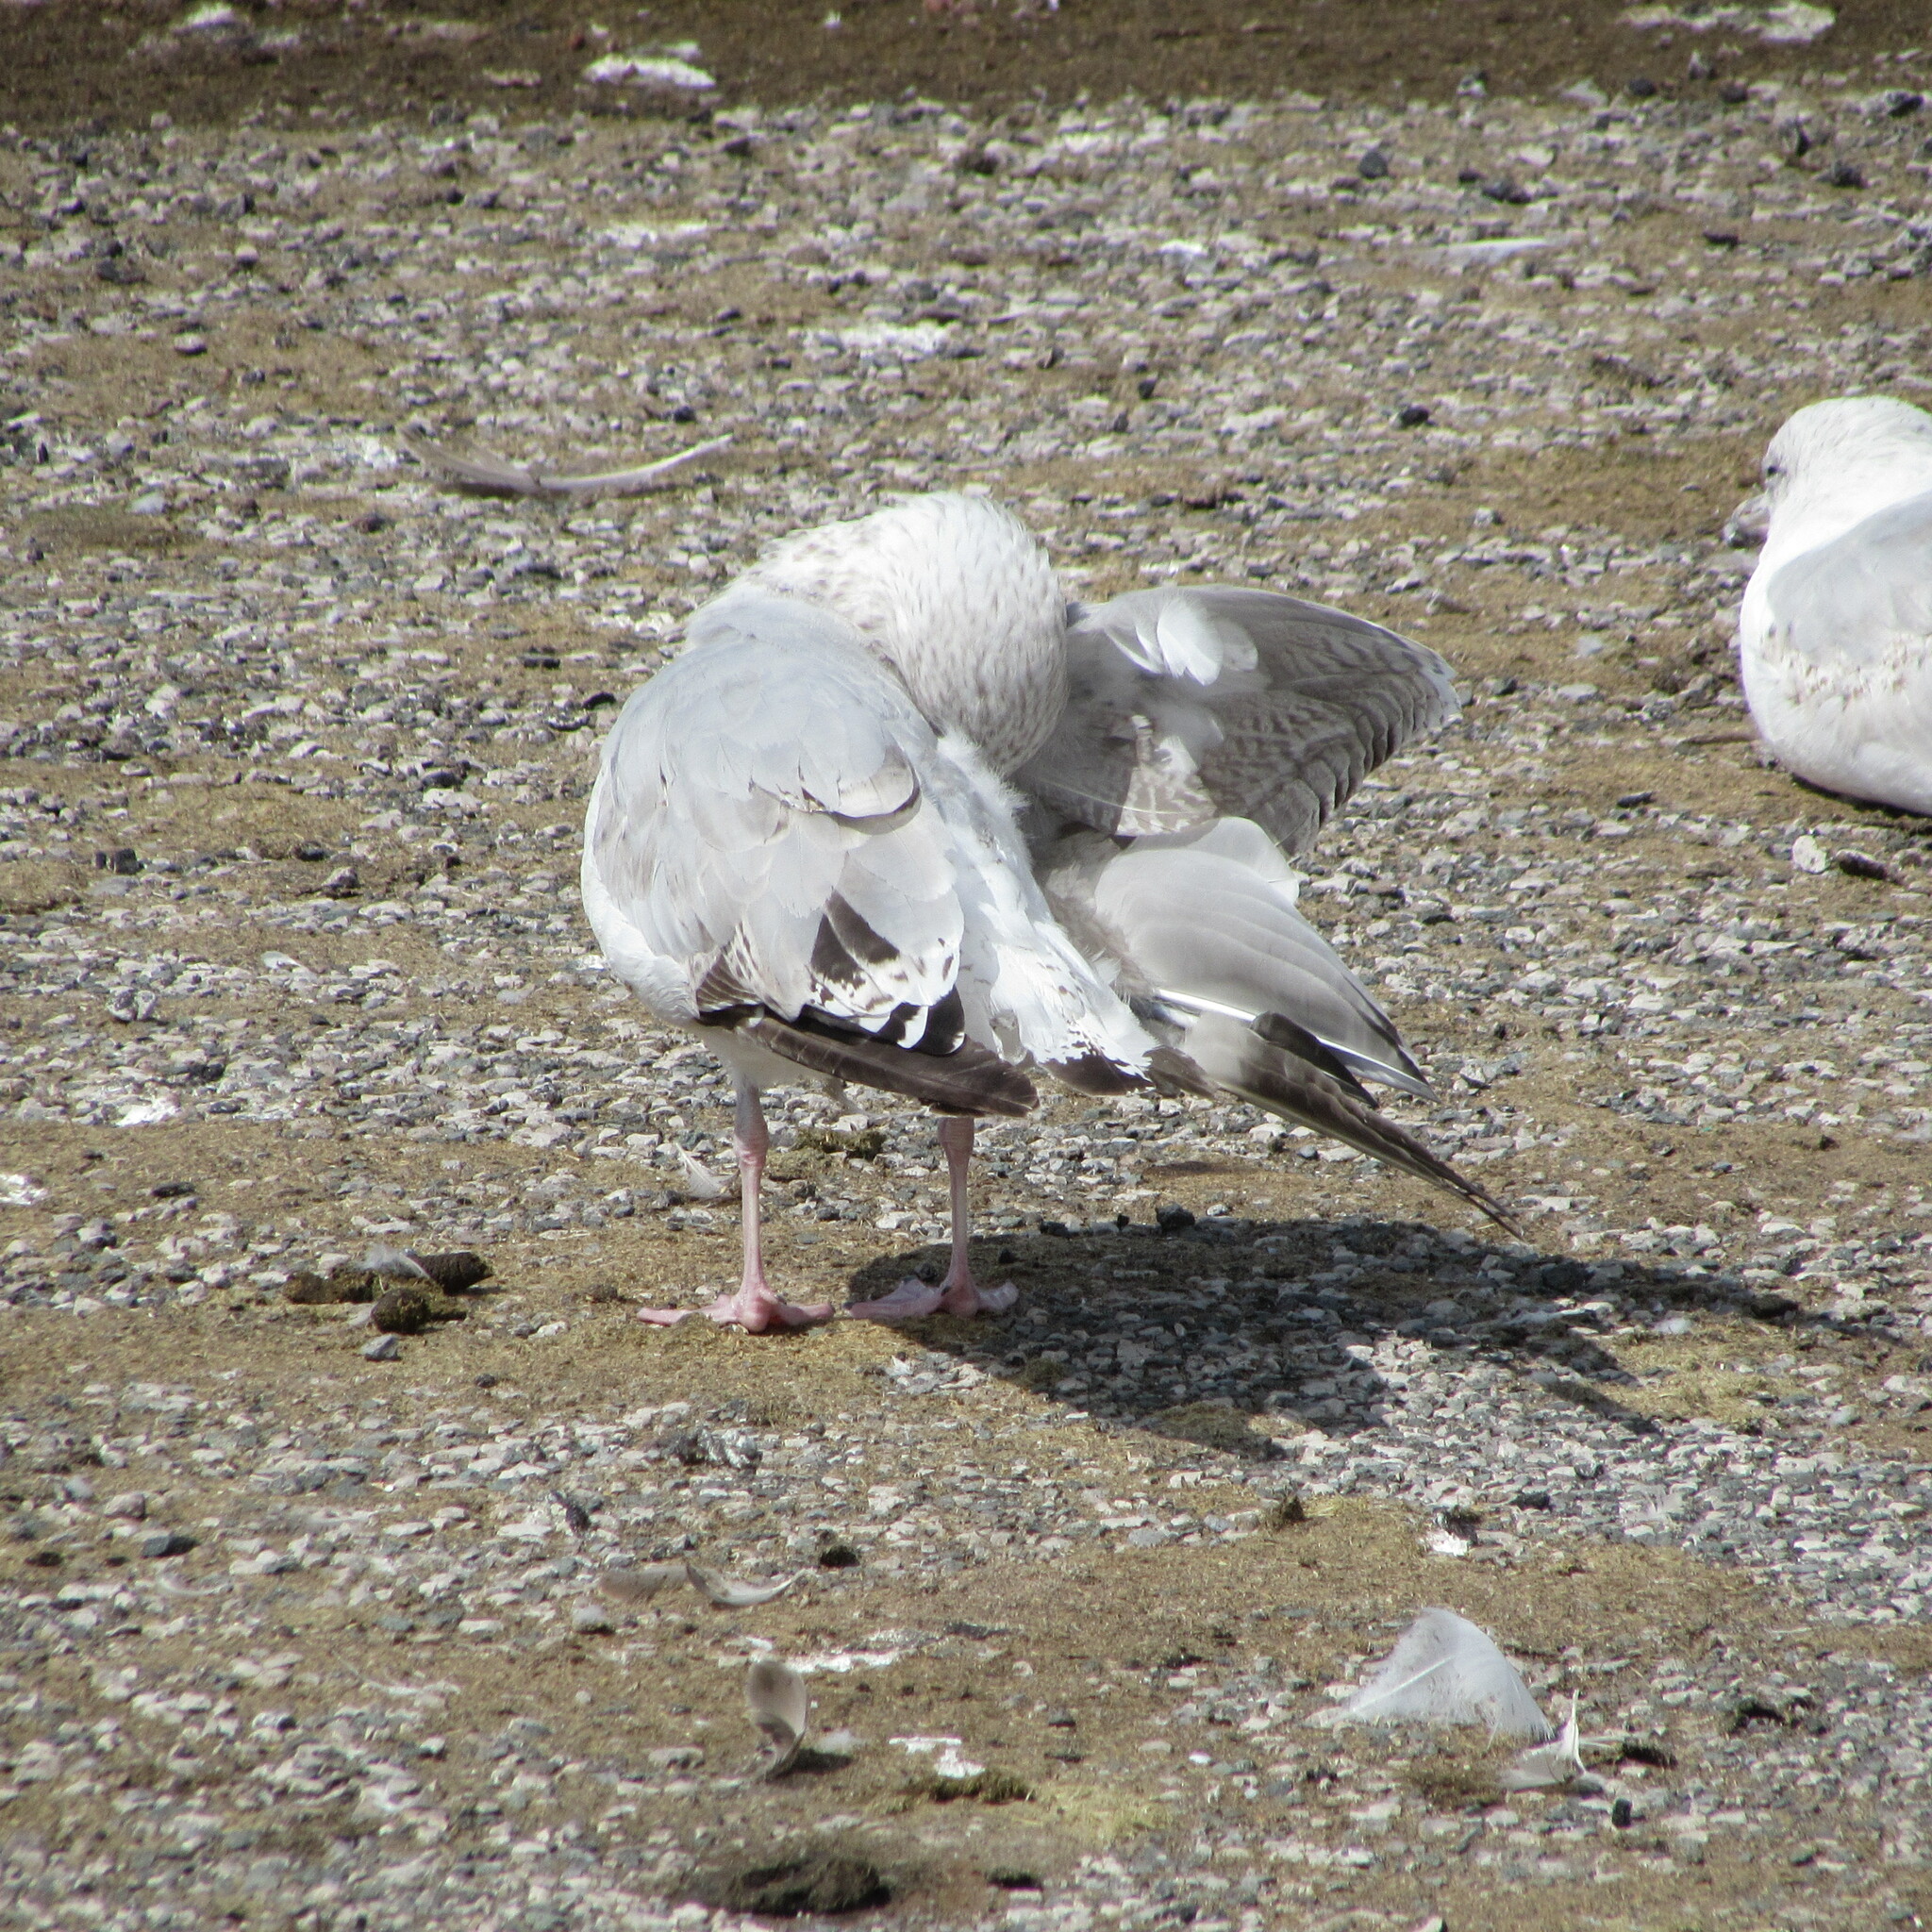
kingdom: Animalia
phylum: Chordata
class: Aves
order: Charadriiformes
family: Laridae
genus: Larus
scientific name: Larus argentatus
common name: Herring gull
